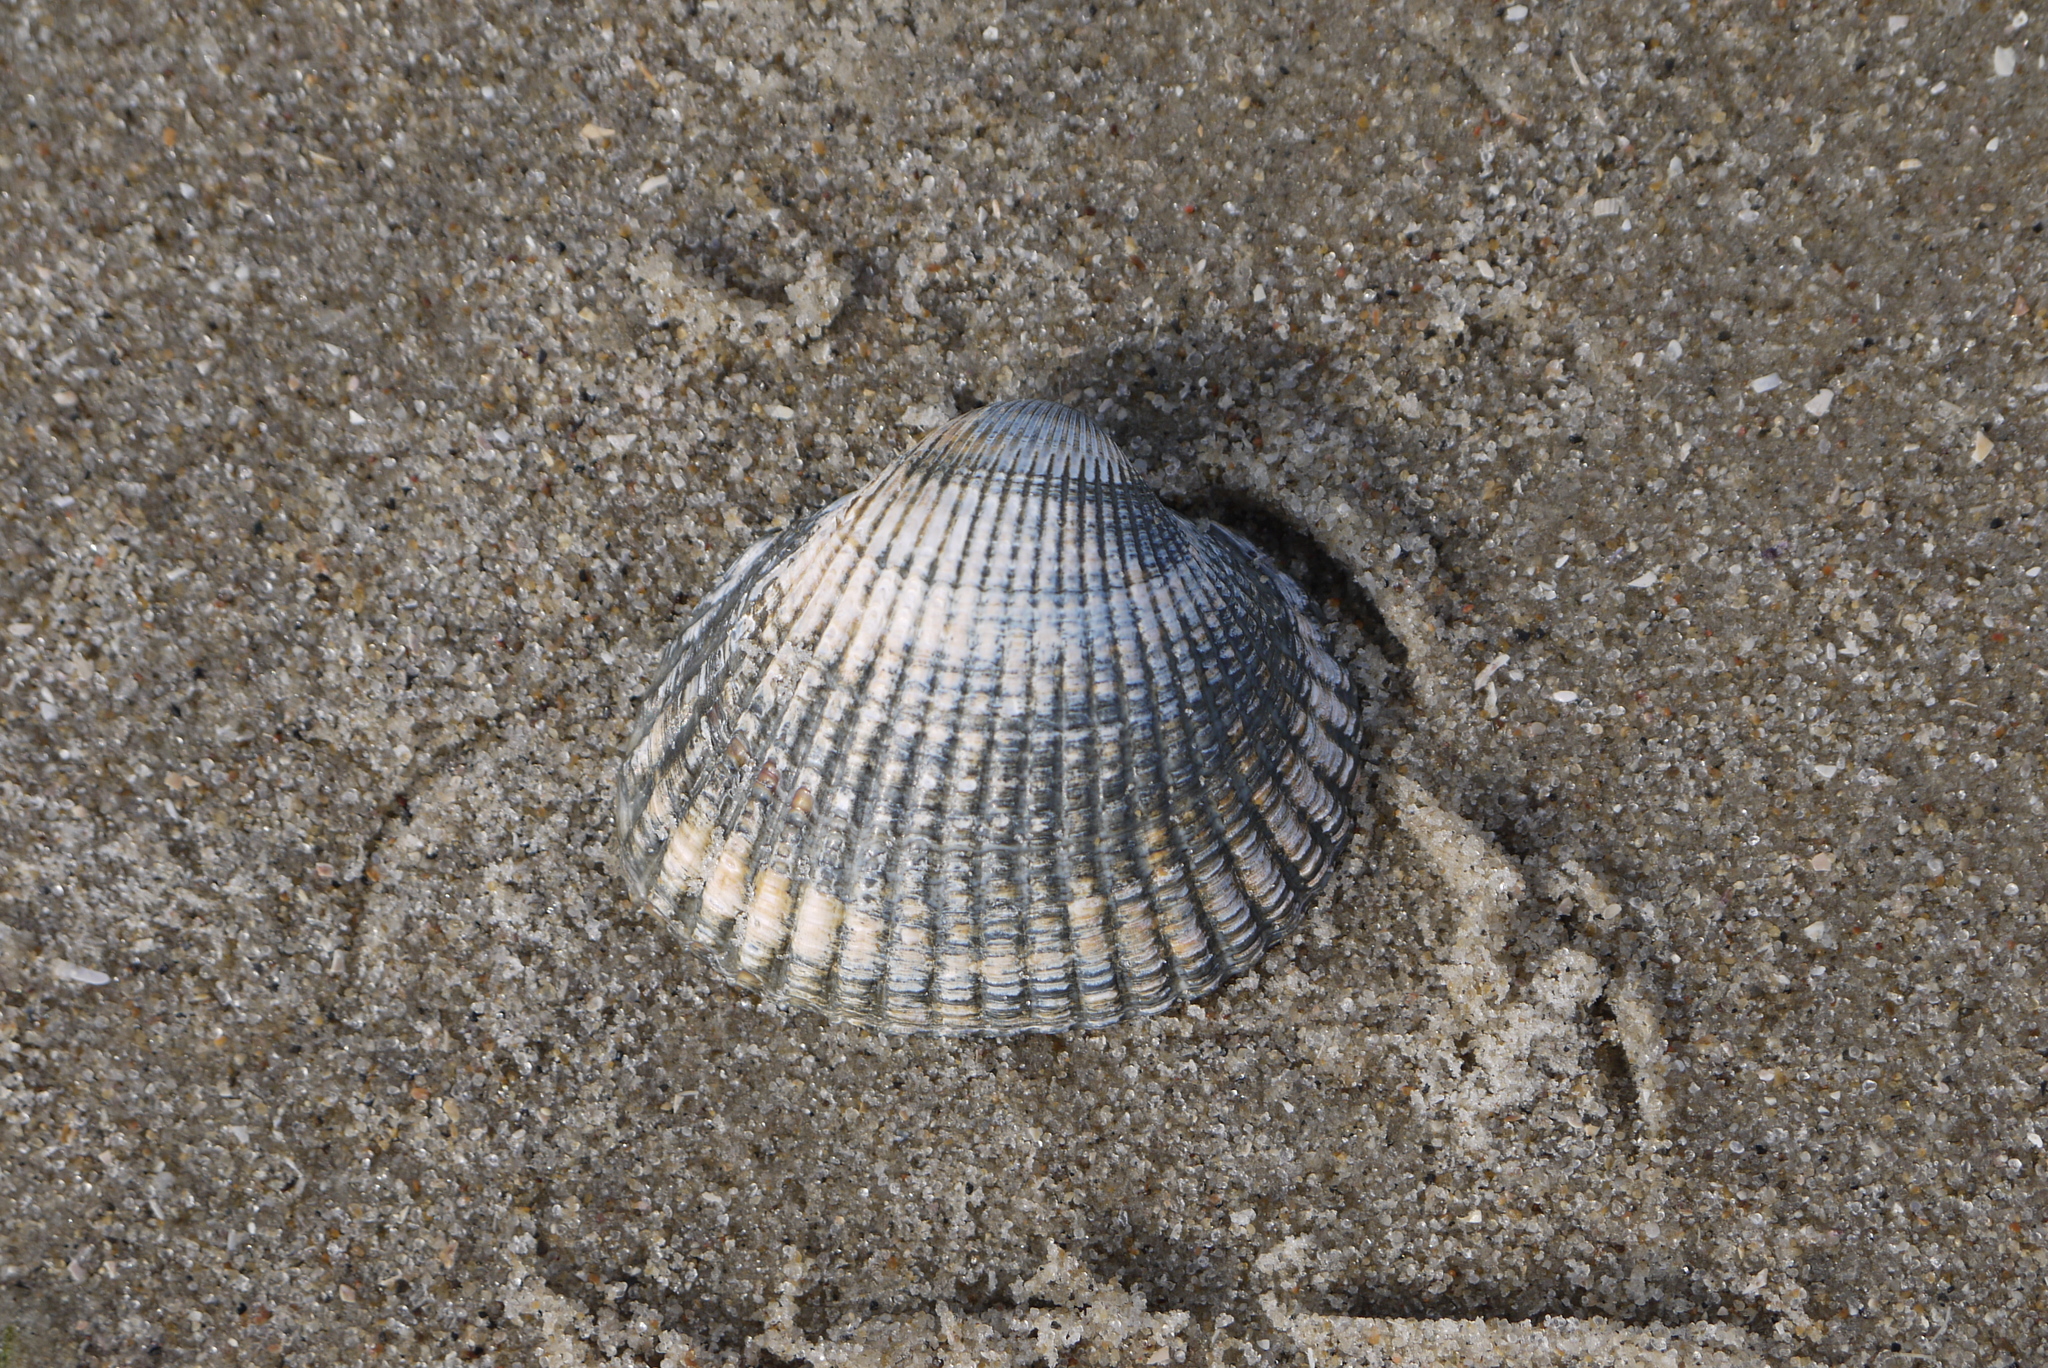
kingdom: Animalia
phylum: Mollusca
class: Bivalvia
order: Cardiida
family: Cardiidae
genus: Cerastoderma
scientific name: Cerastoderma edule
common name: Common cockle
